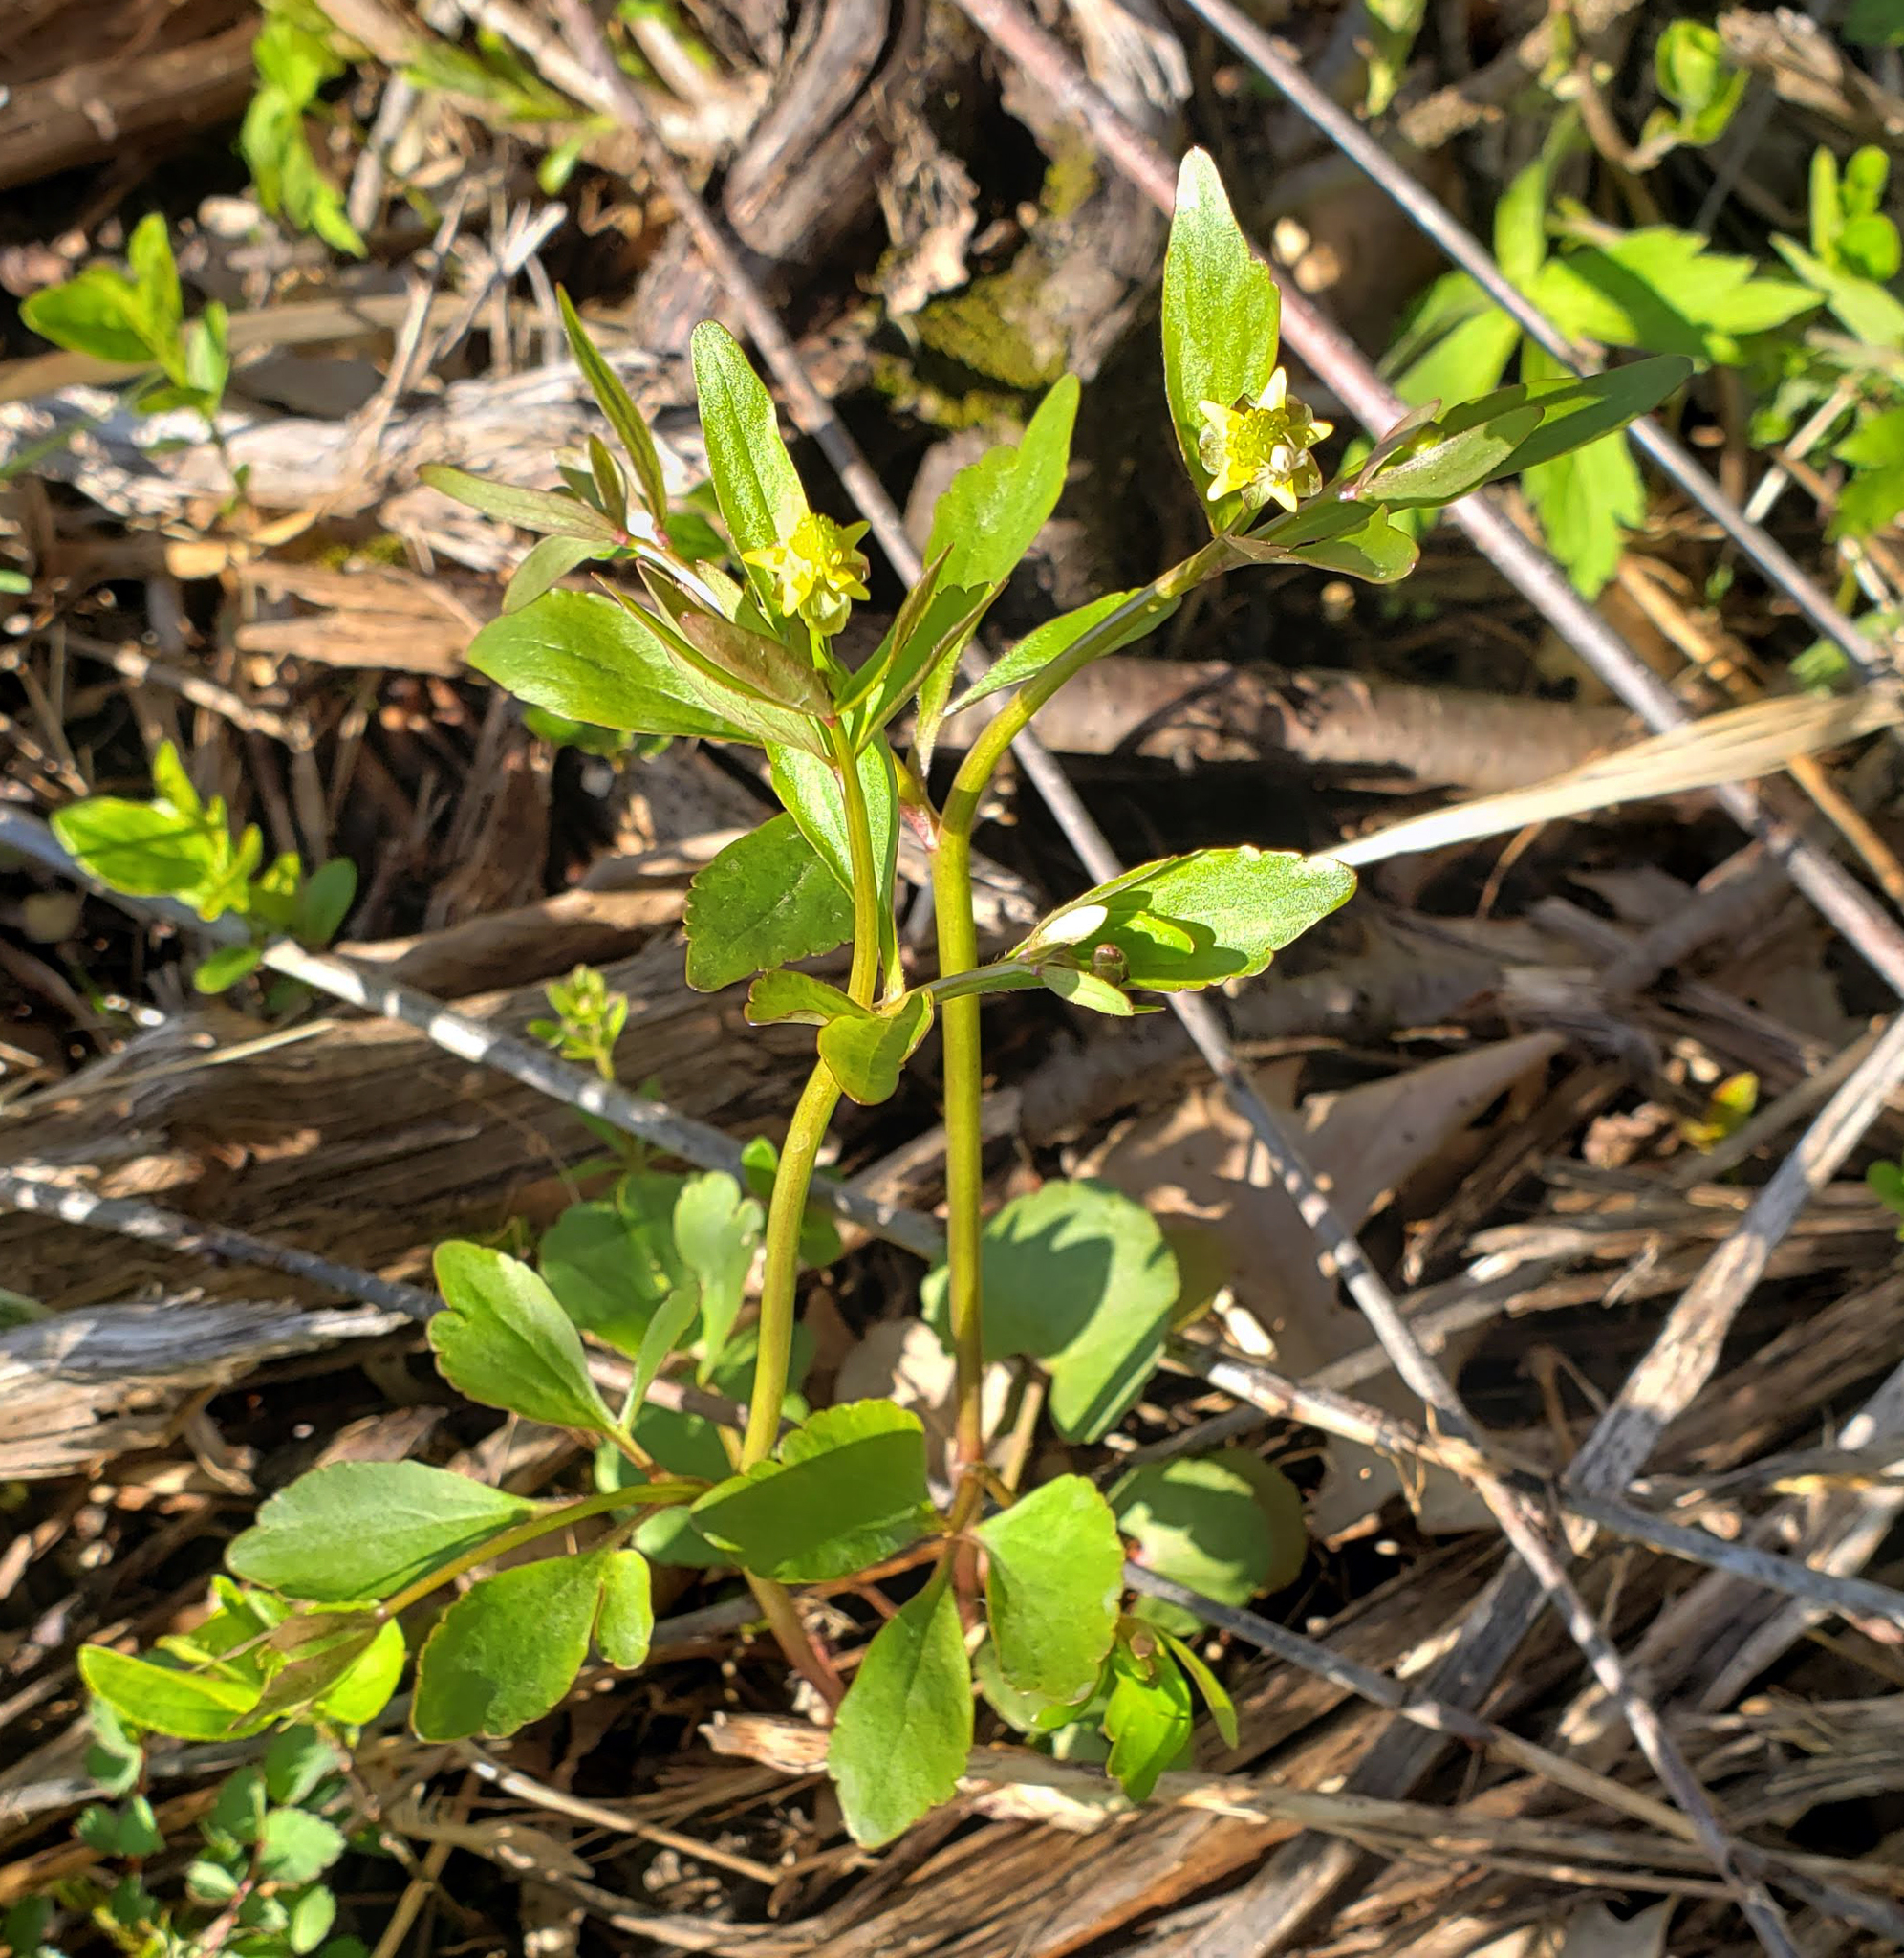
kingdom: Plantae
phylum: Tracheophyta
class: Magnoliopsida
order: Ranunculales
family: Ranunculaceae
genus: Ranunculus
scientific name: Ranunculus abortivus
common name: Early wood buttercup
